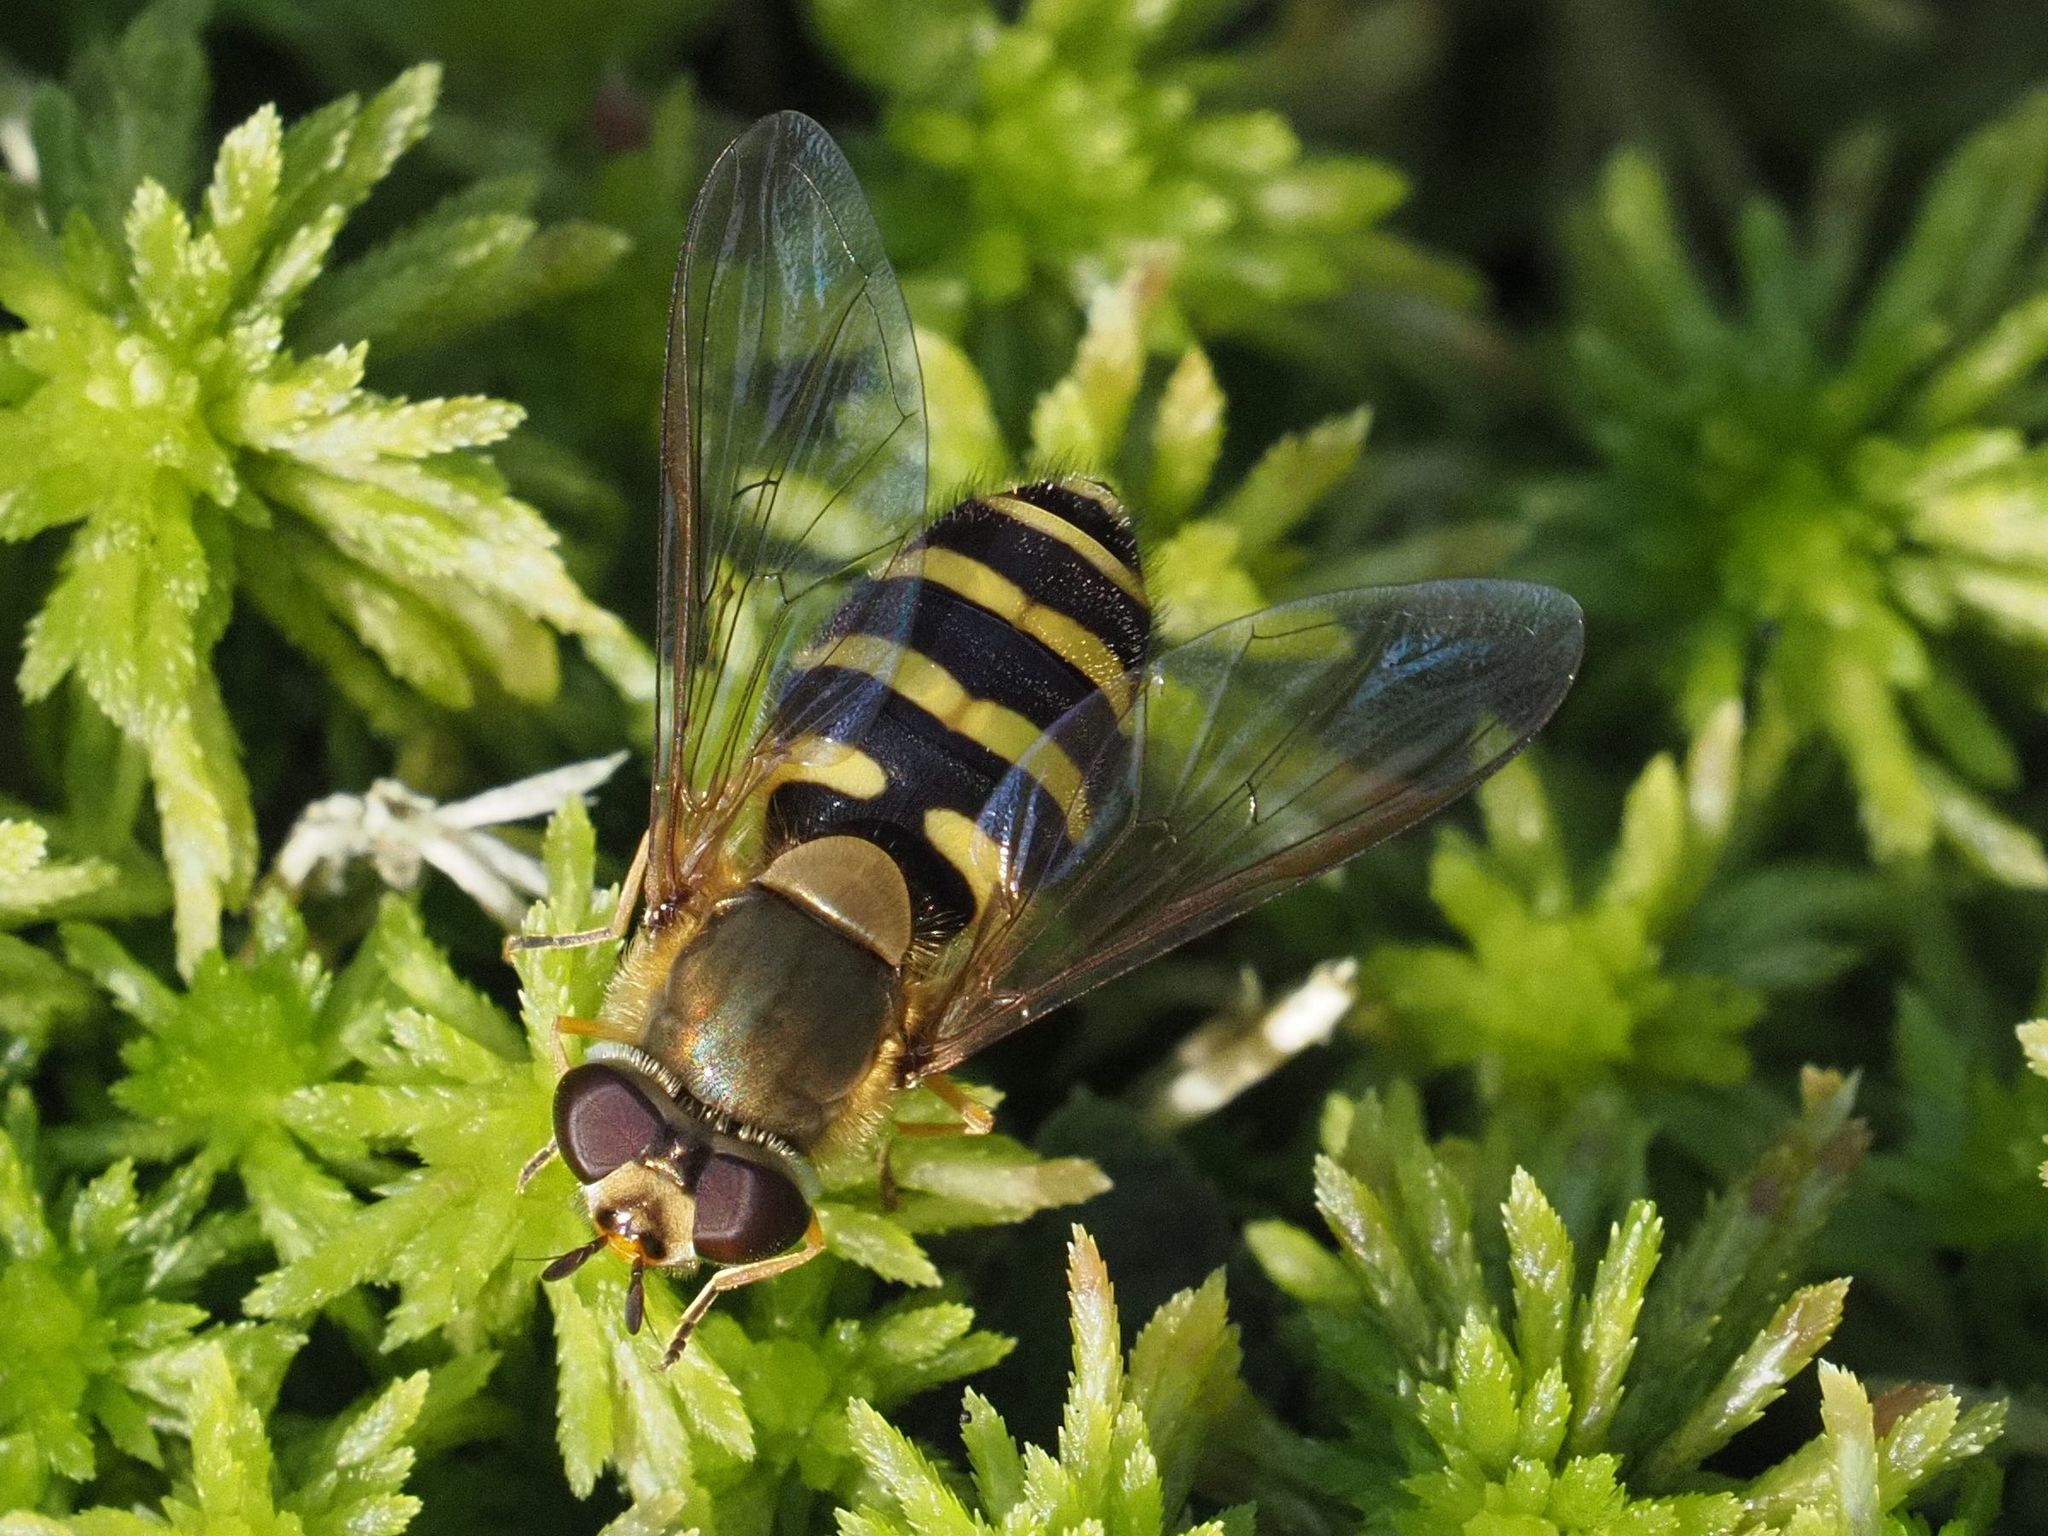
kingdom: Animalia
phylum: Arthropoda
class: Insecta
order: Diptera
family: Syrphidae
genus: Syrphus
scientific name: Syrphus torvus
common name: Hairy-eyed flower fly
